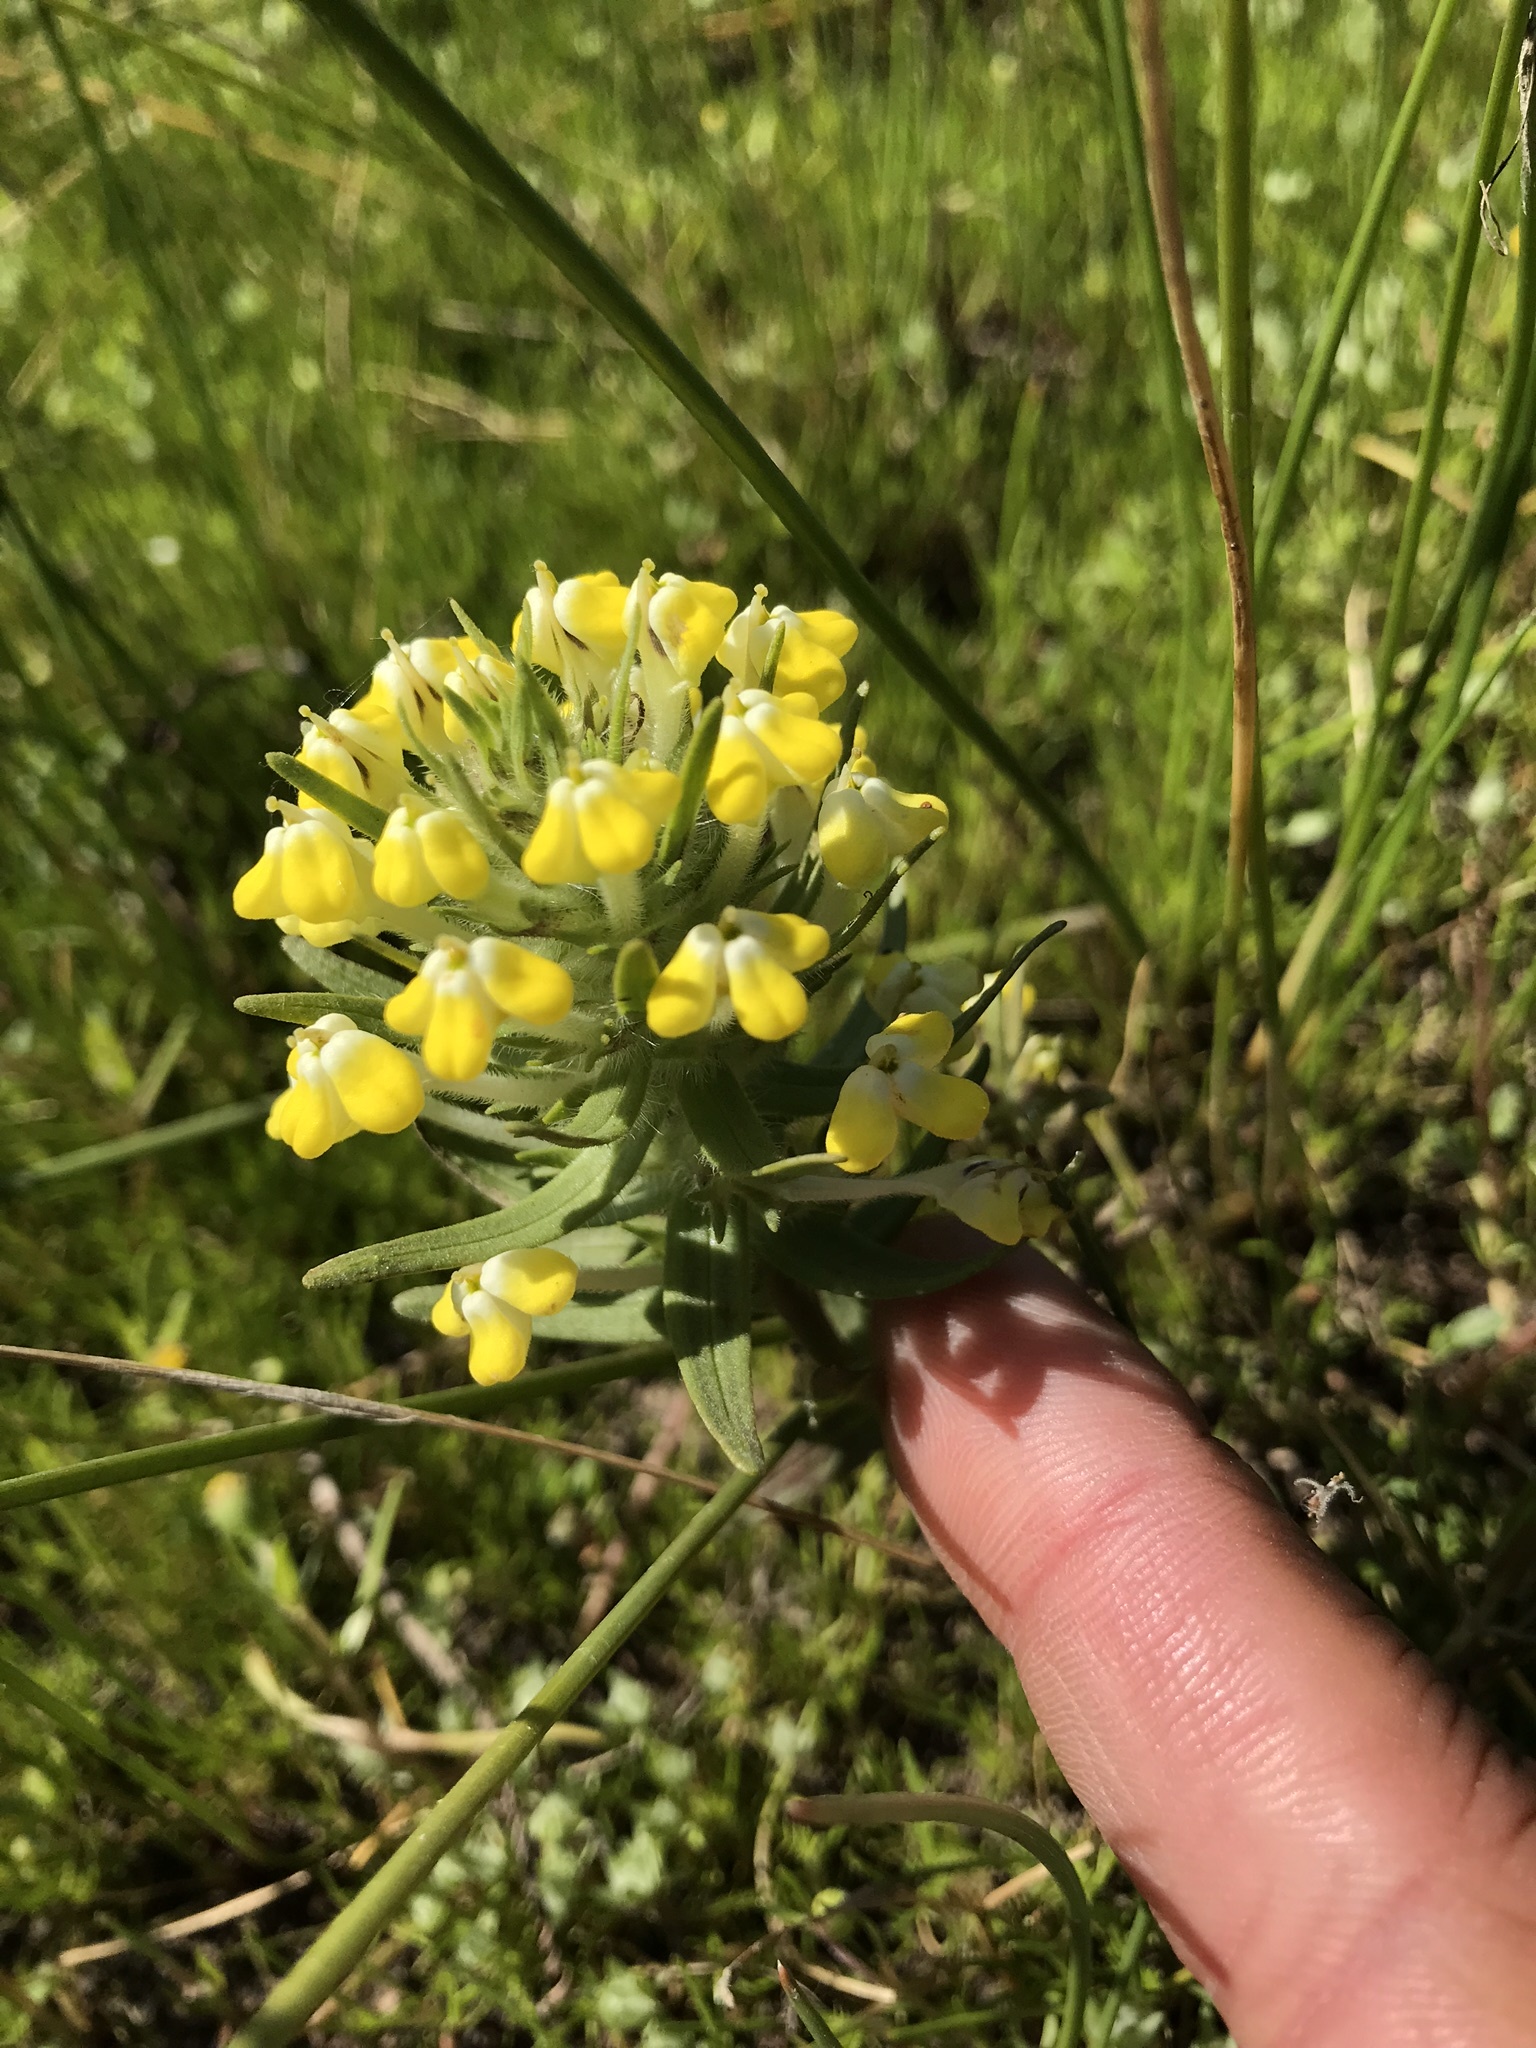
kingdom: Plantae
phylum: Tracheophyta
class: Magnoliopsida
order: Lamiales
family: Orobanchaceae
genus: Castilleja
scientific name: Castilleja campestris
